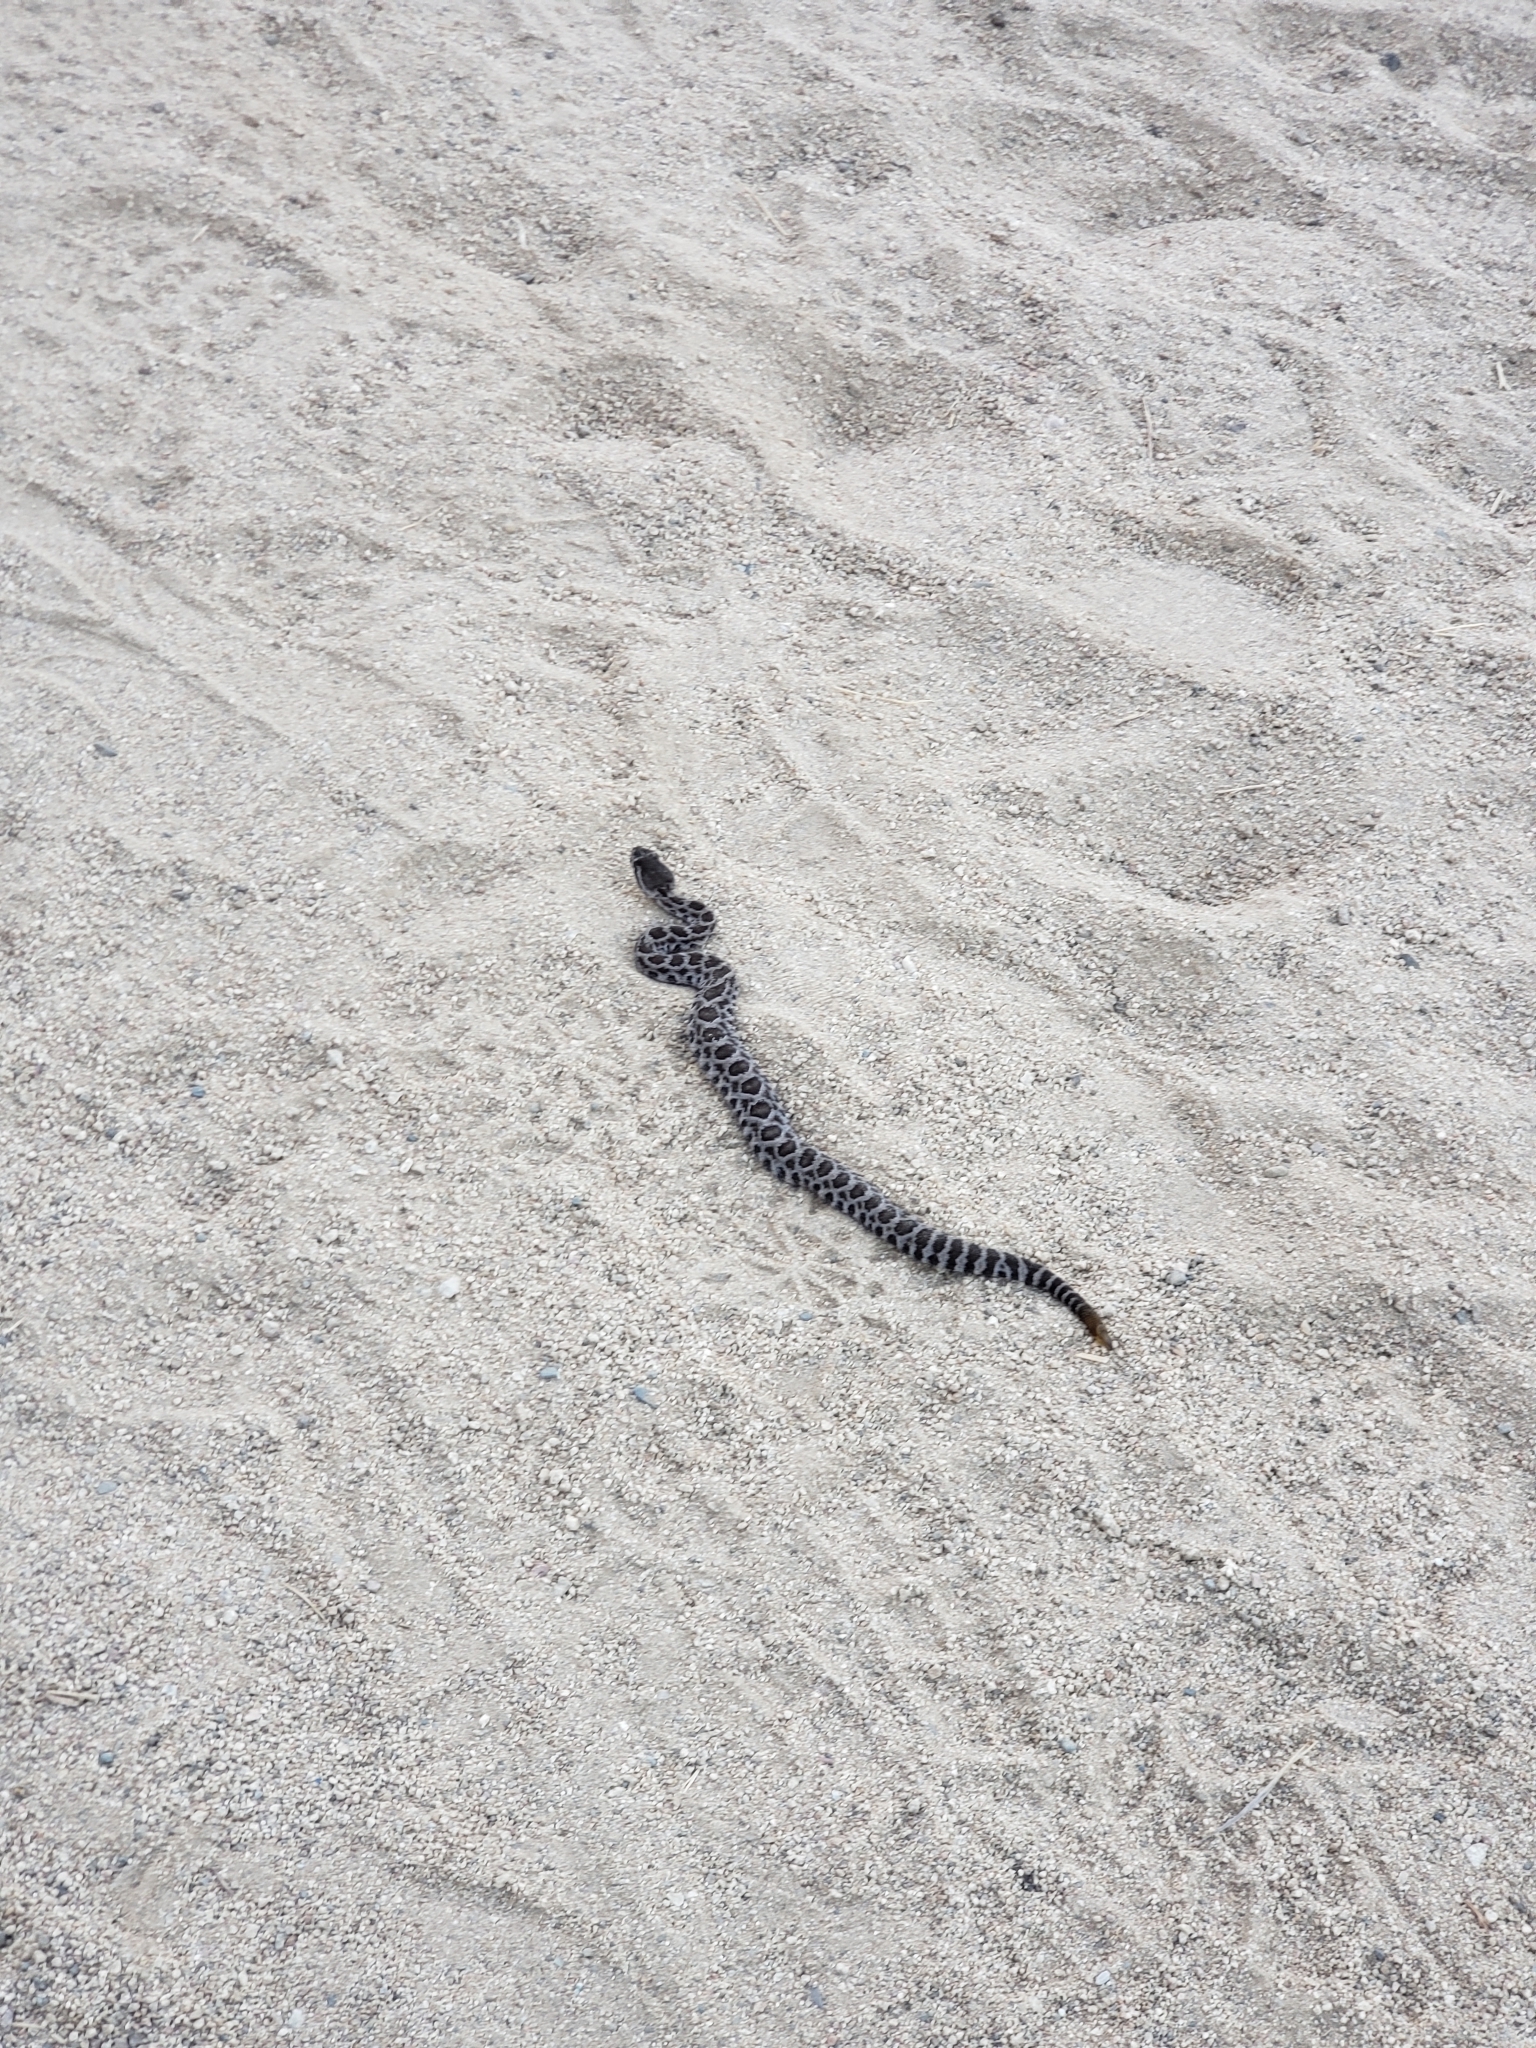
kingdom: Animalia
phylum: Chordata
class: Squamata
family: Viperidae
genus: Crotalus
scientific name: Crotalus oreganus
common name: Abyssus
